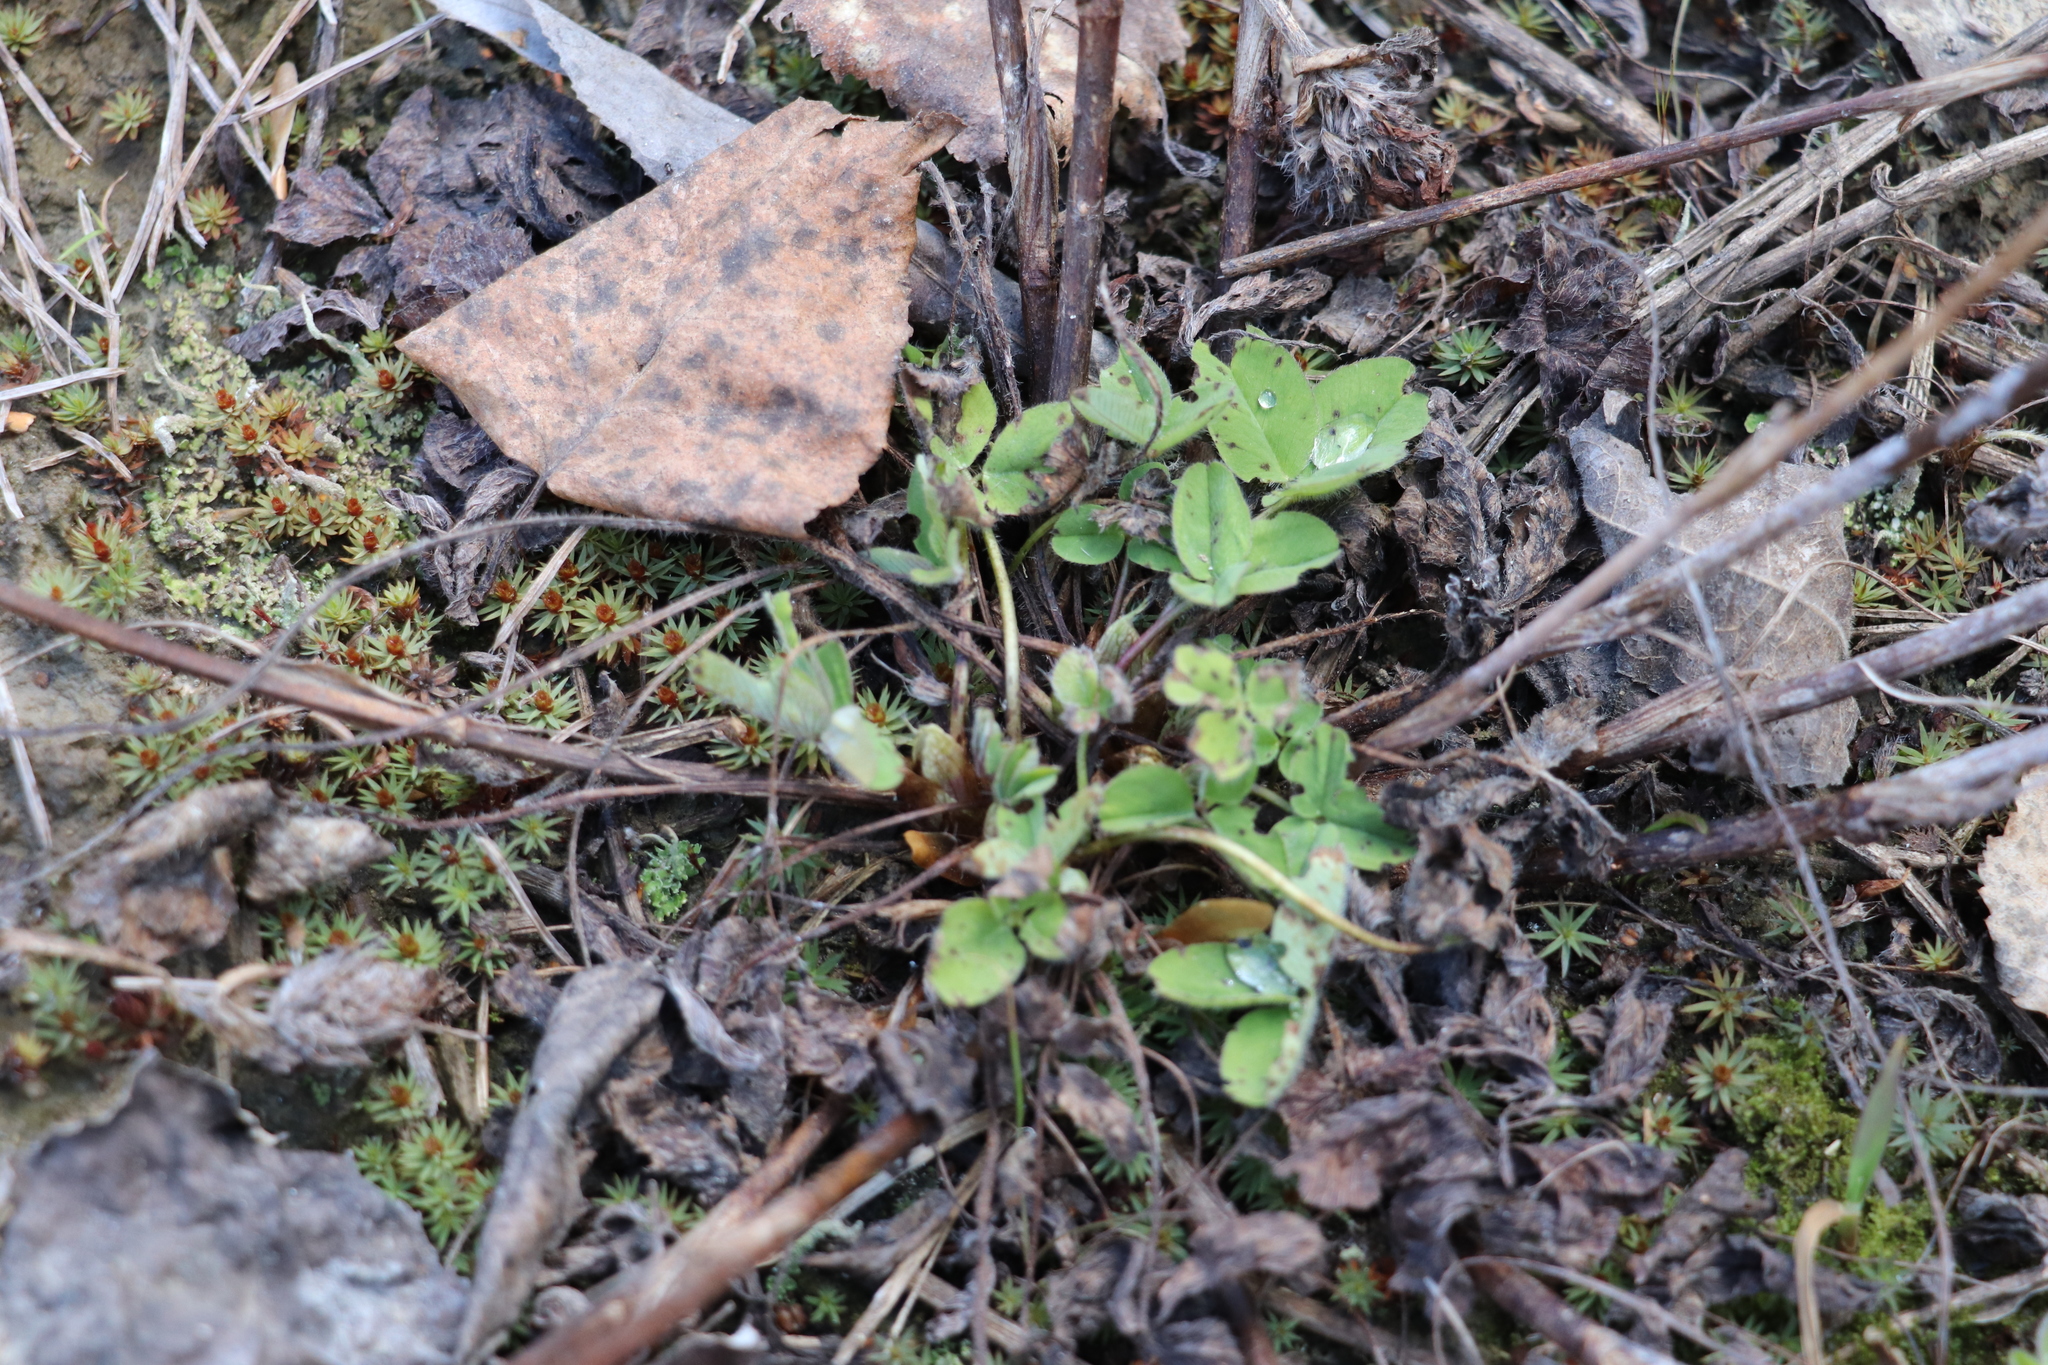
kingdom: Plantae
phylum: Tracheophyta
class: Magnoliopsida
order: Fabales
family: Fabaceae
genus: Trifolium
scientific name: Trifolium pratense
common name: Red clover
